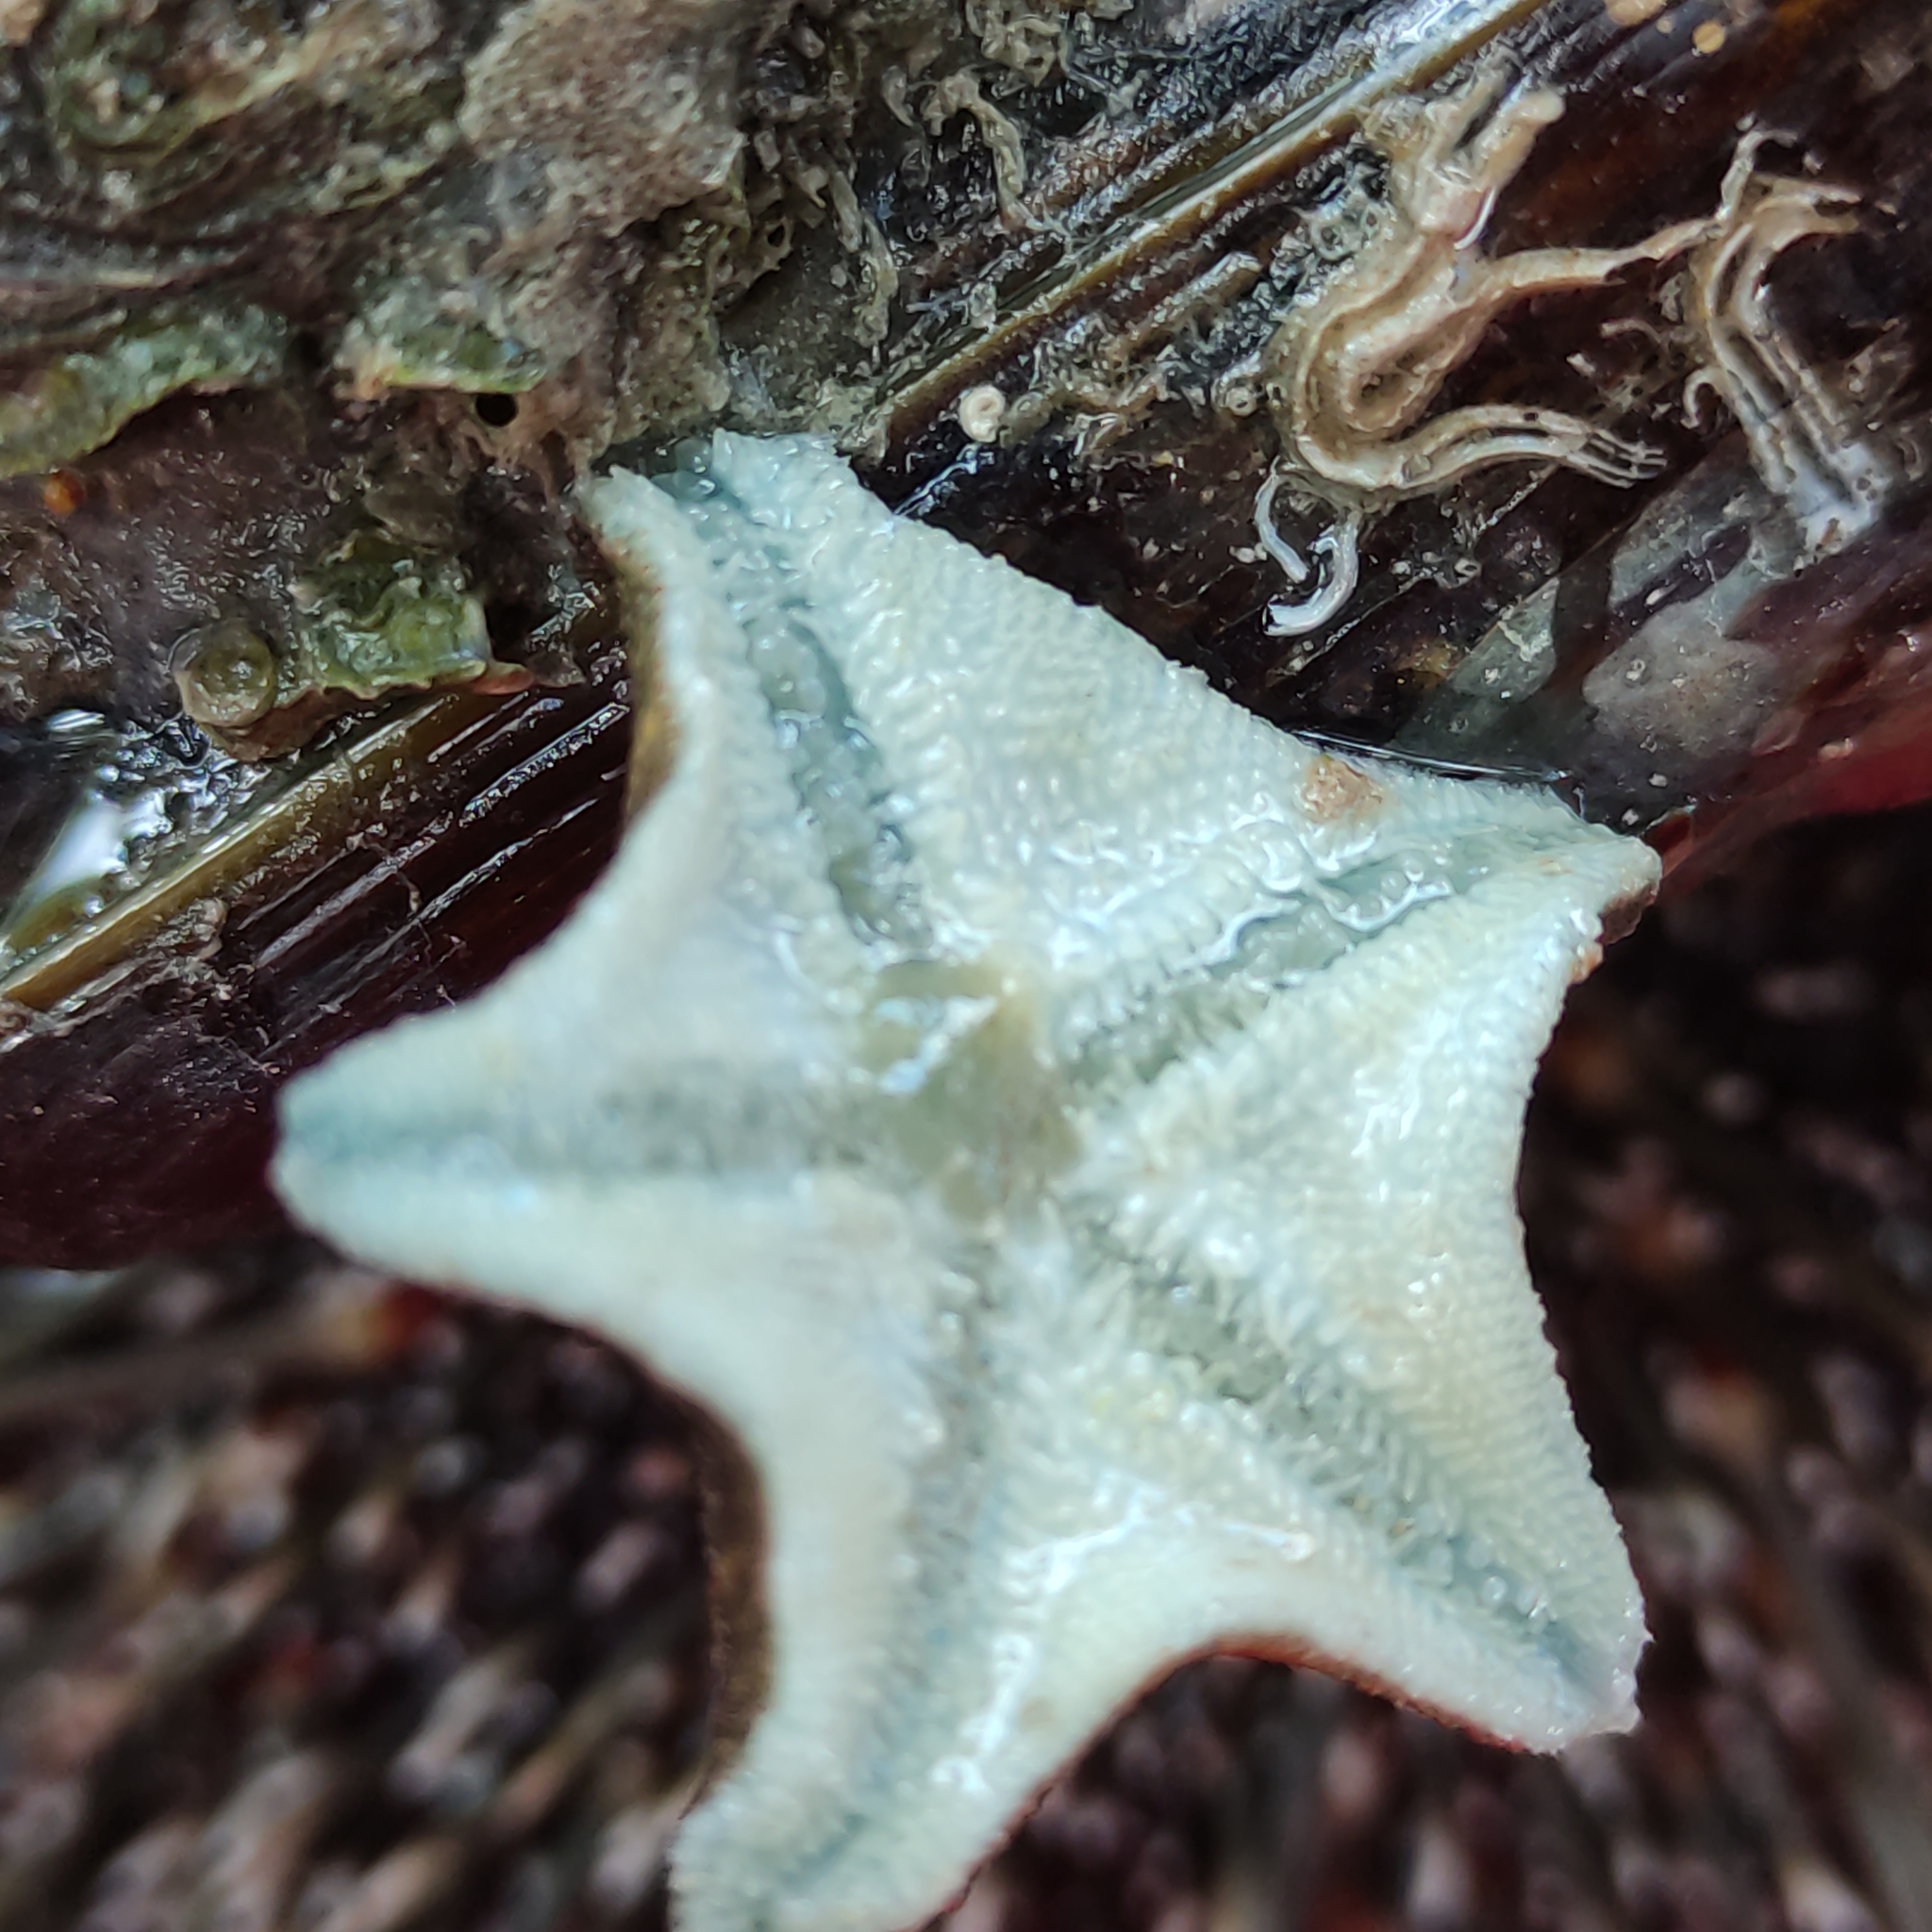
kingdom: Animalia
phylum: Echinodermata
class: Asteroidea
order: Valvatida
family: Asterinidae
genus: Patiriella
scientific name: Patiriella regularis
